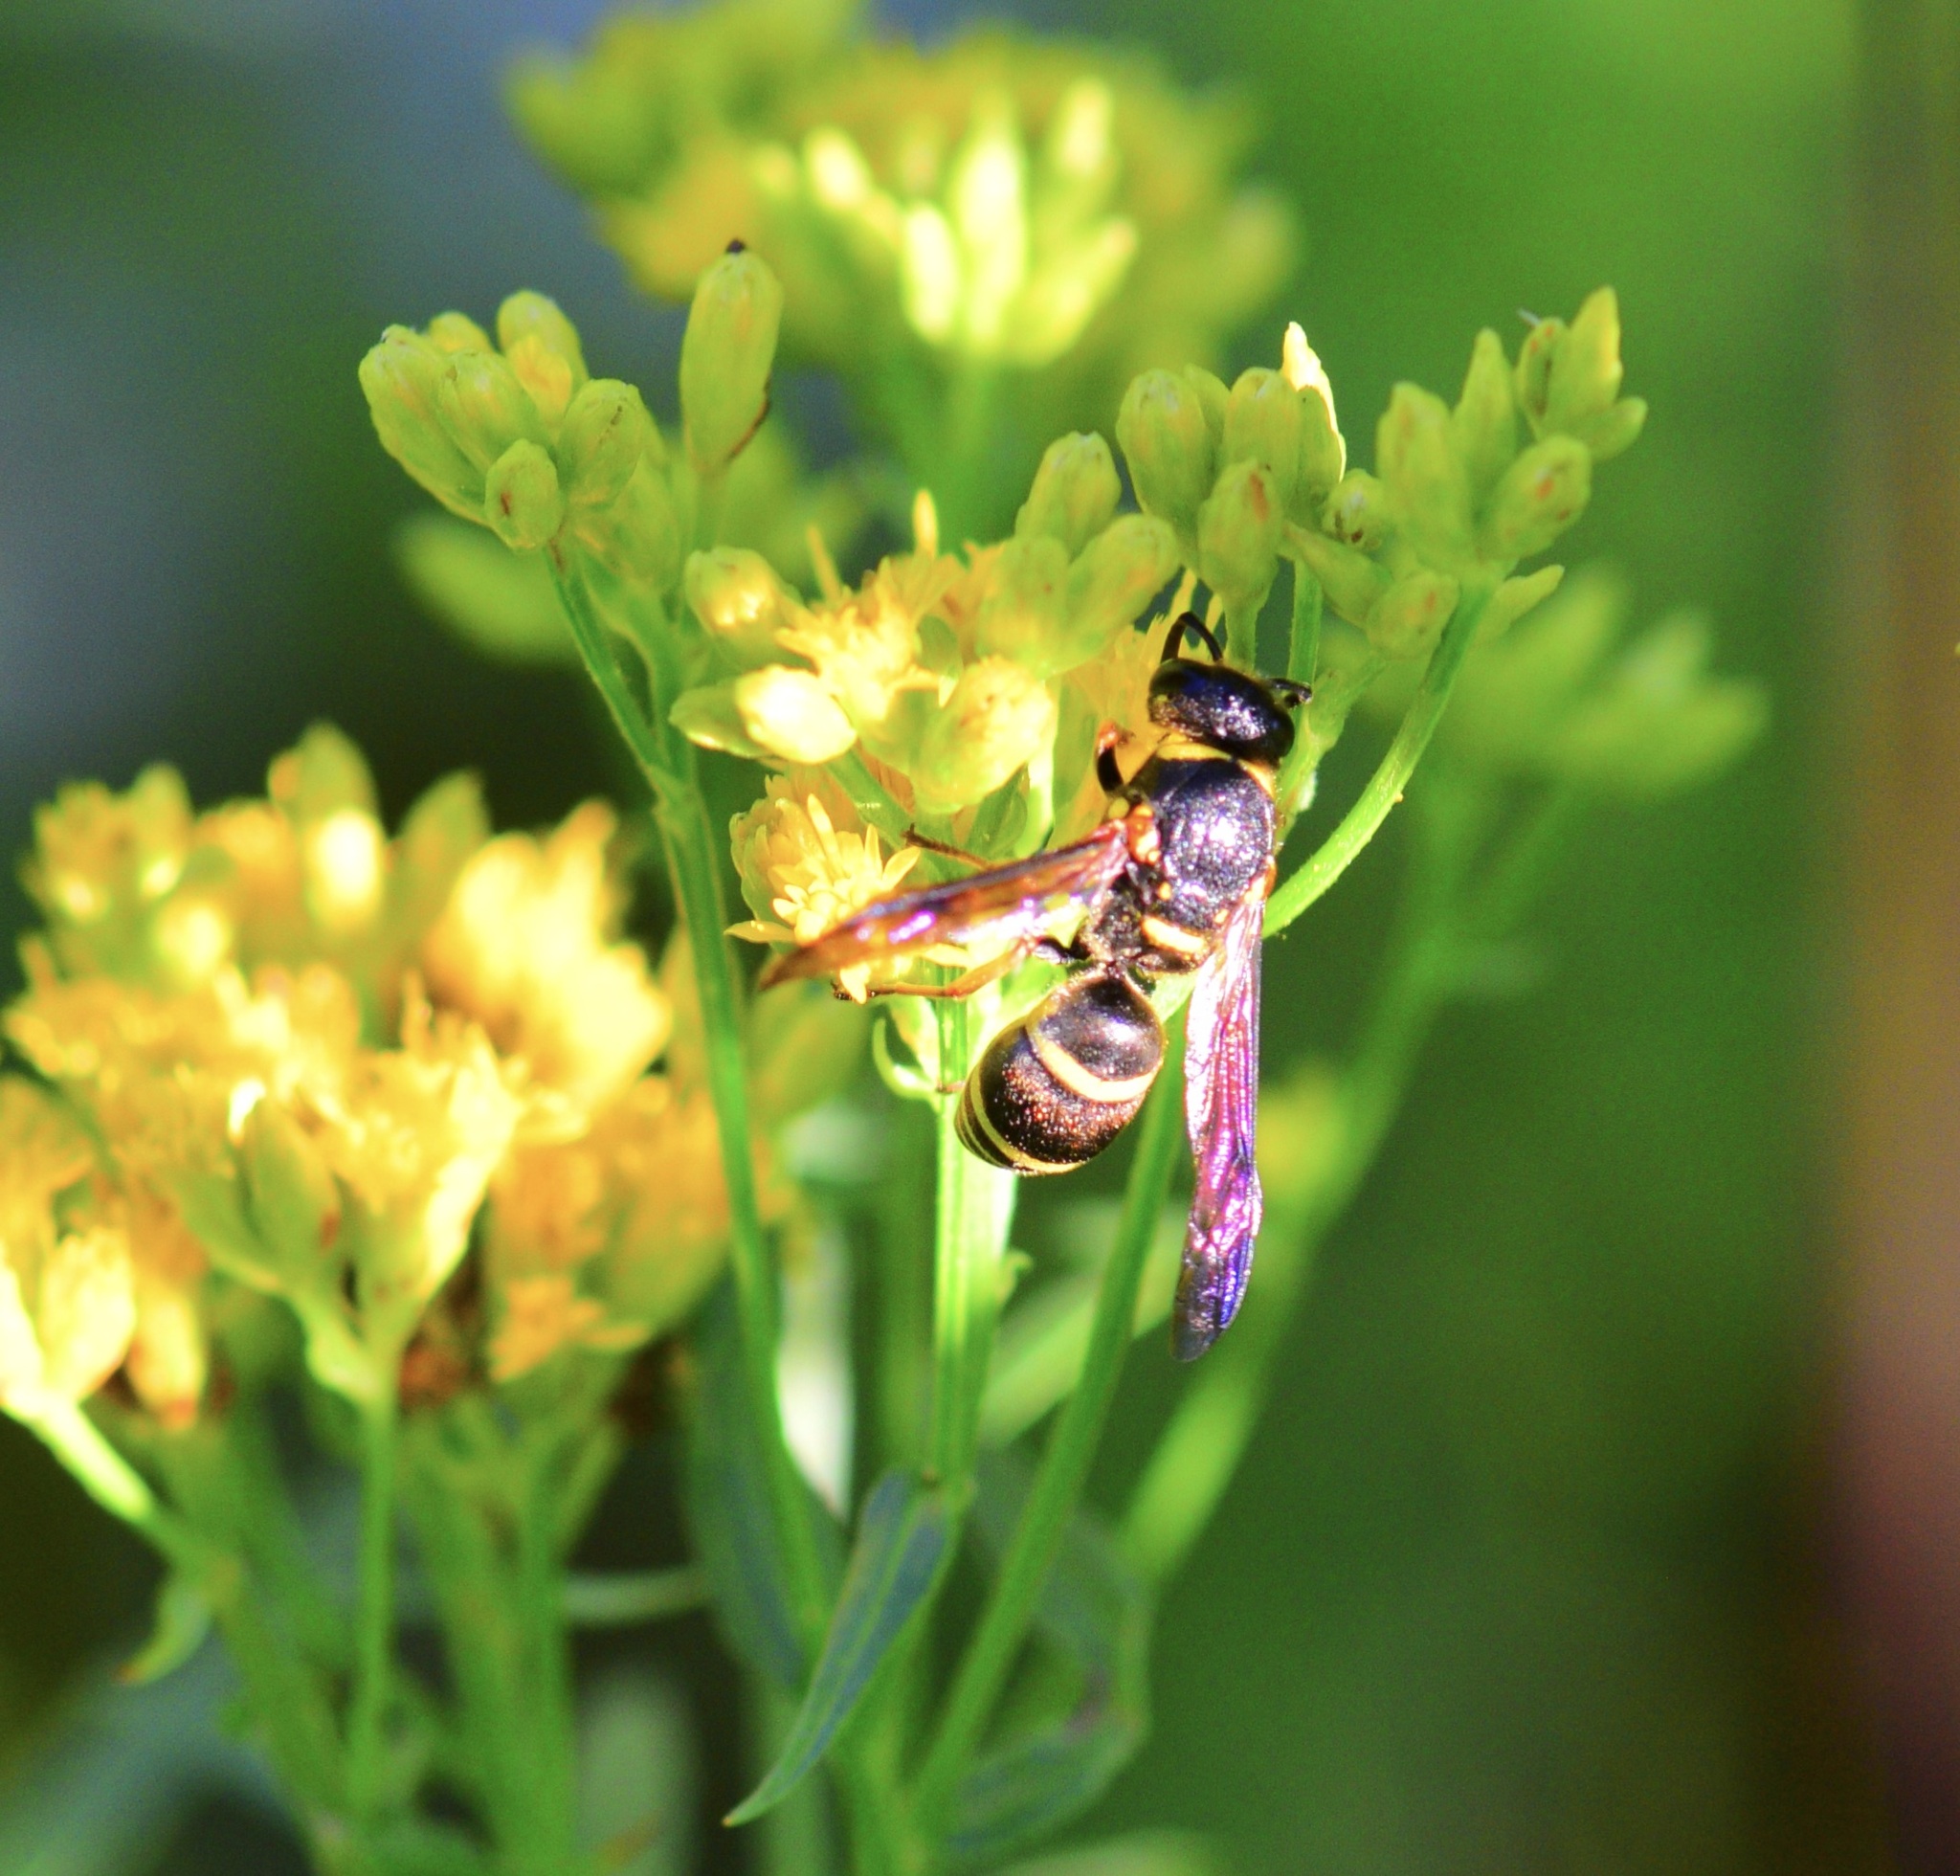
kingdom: Animalia
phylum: Arthropoda
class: Insecta
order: Hymenoptera
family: Eumenidae
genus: Euodynerus
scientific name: Euodynerus foraminatus
